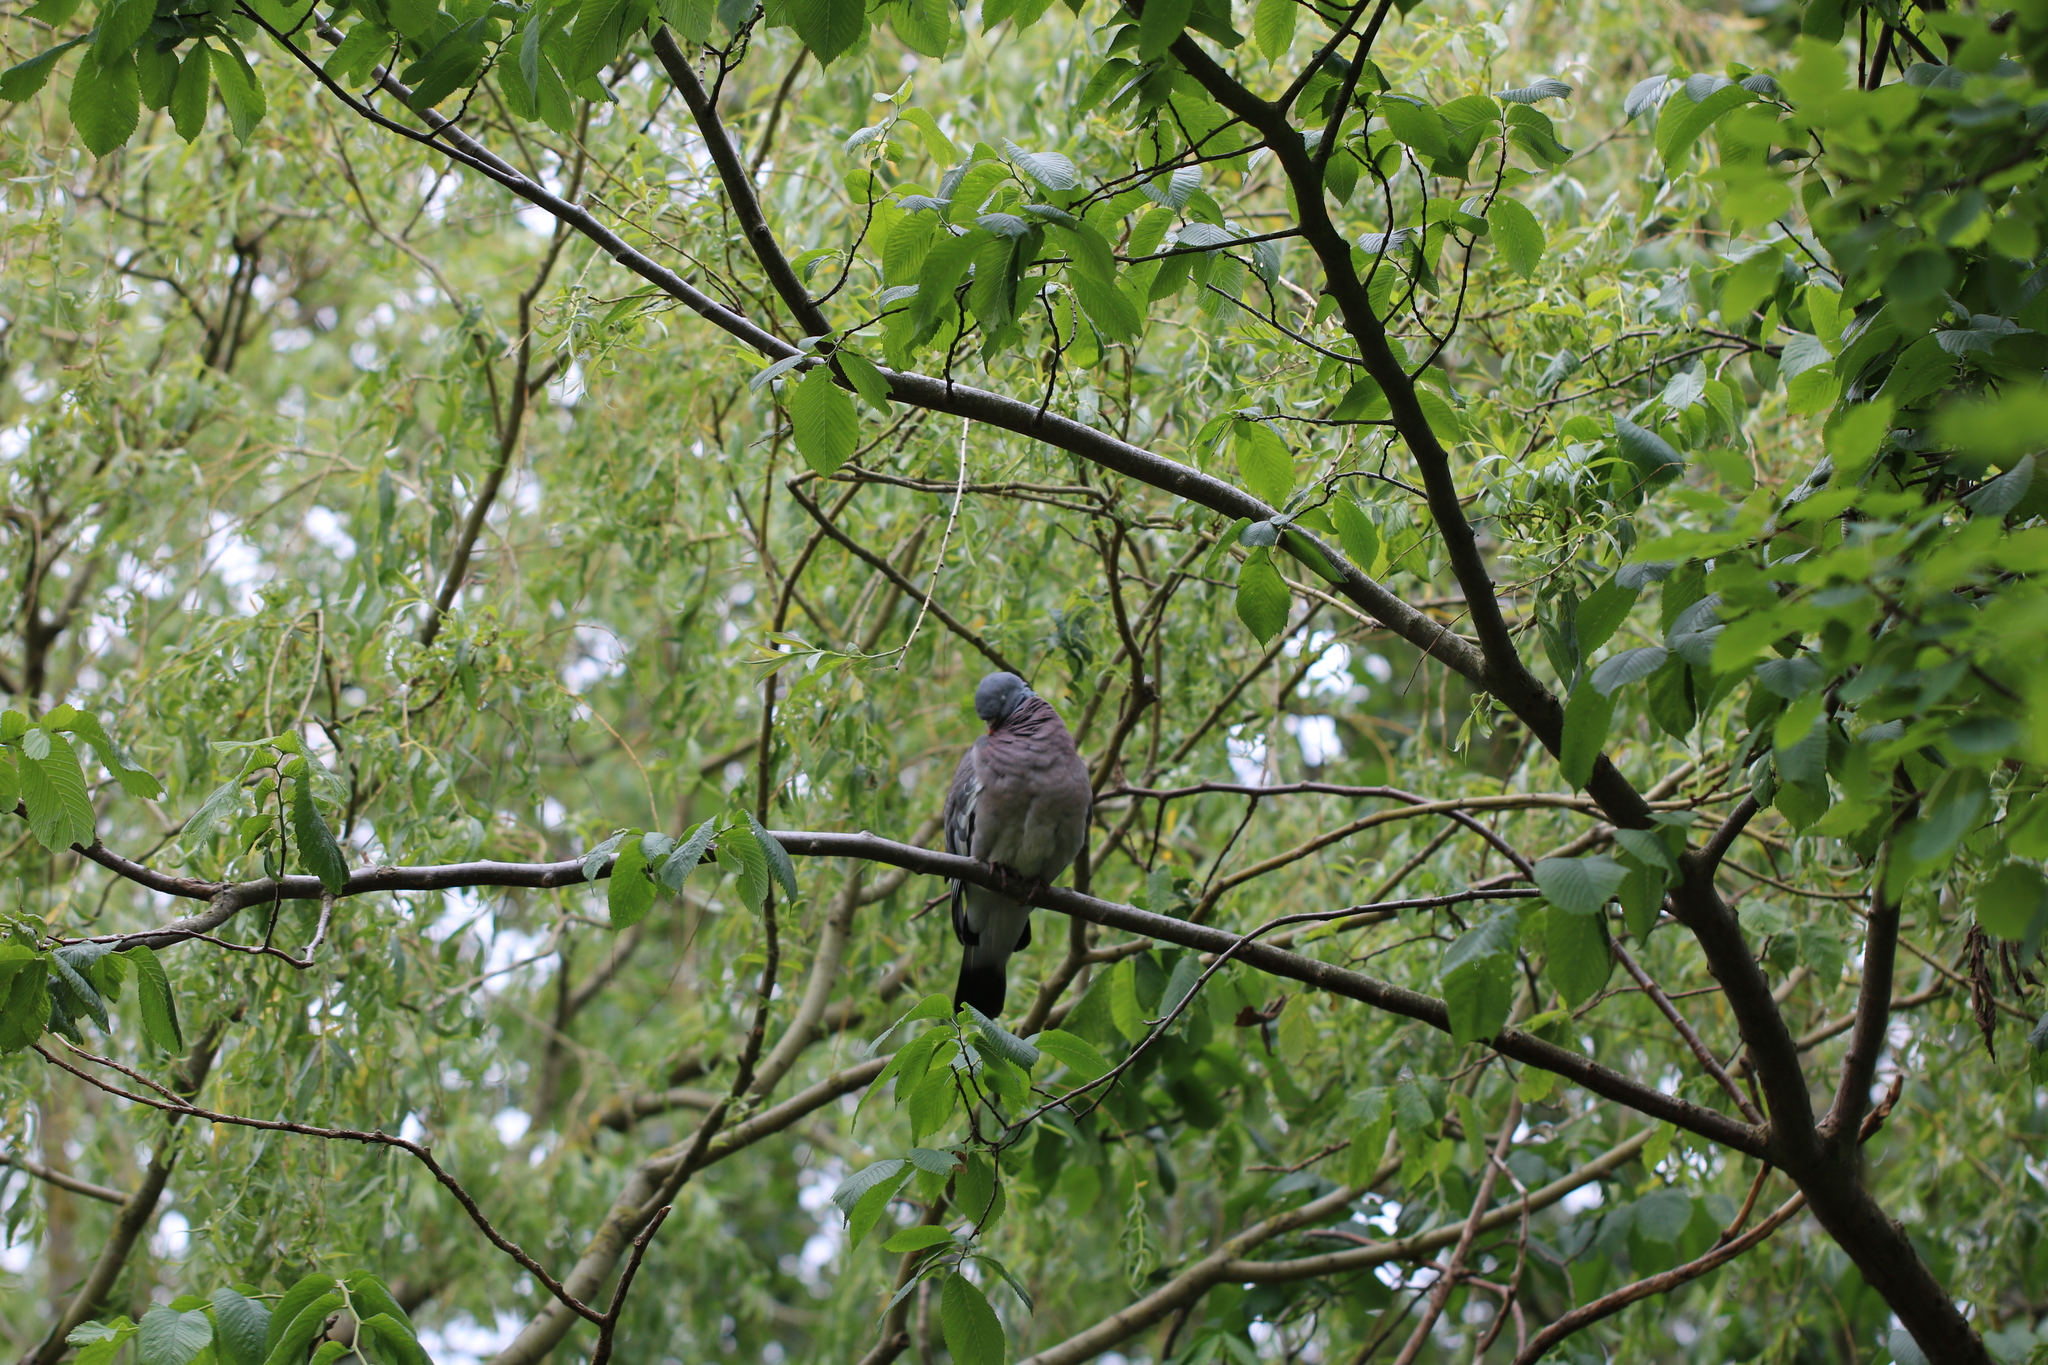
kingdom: Animalia
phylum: Chordata
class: Aves
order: Columbiformes
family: Columbidae
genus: Columba
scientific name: Columba palumbus
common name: Common wood pigeon
